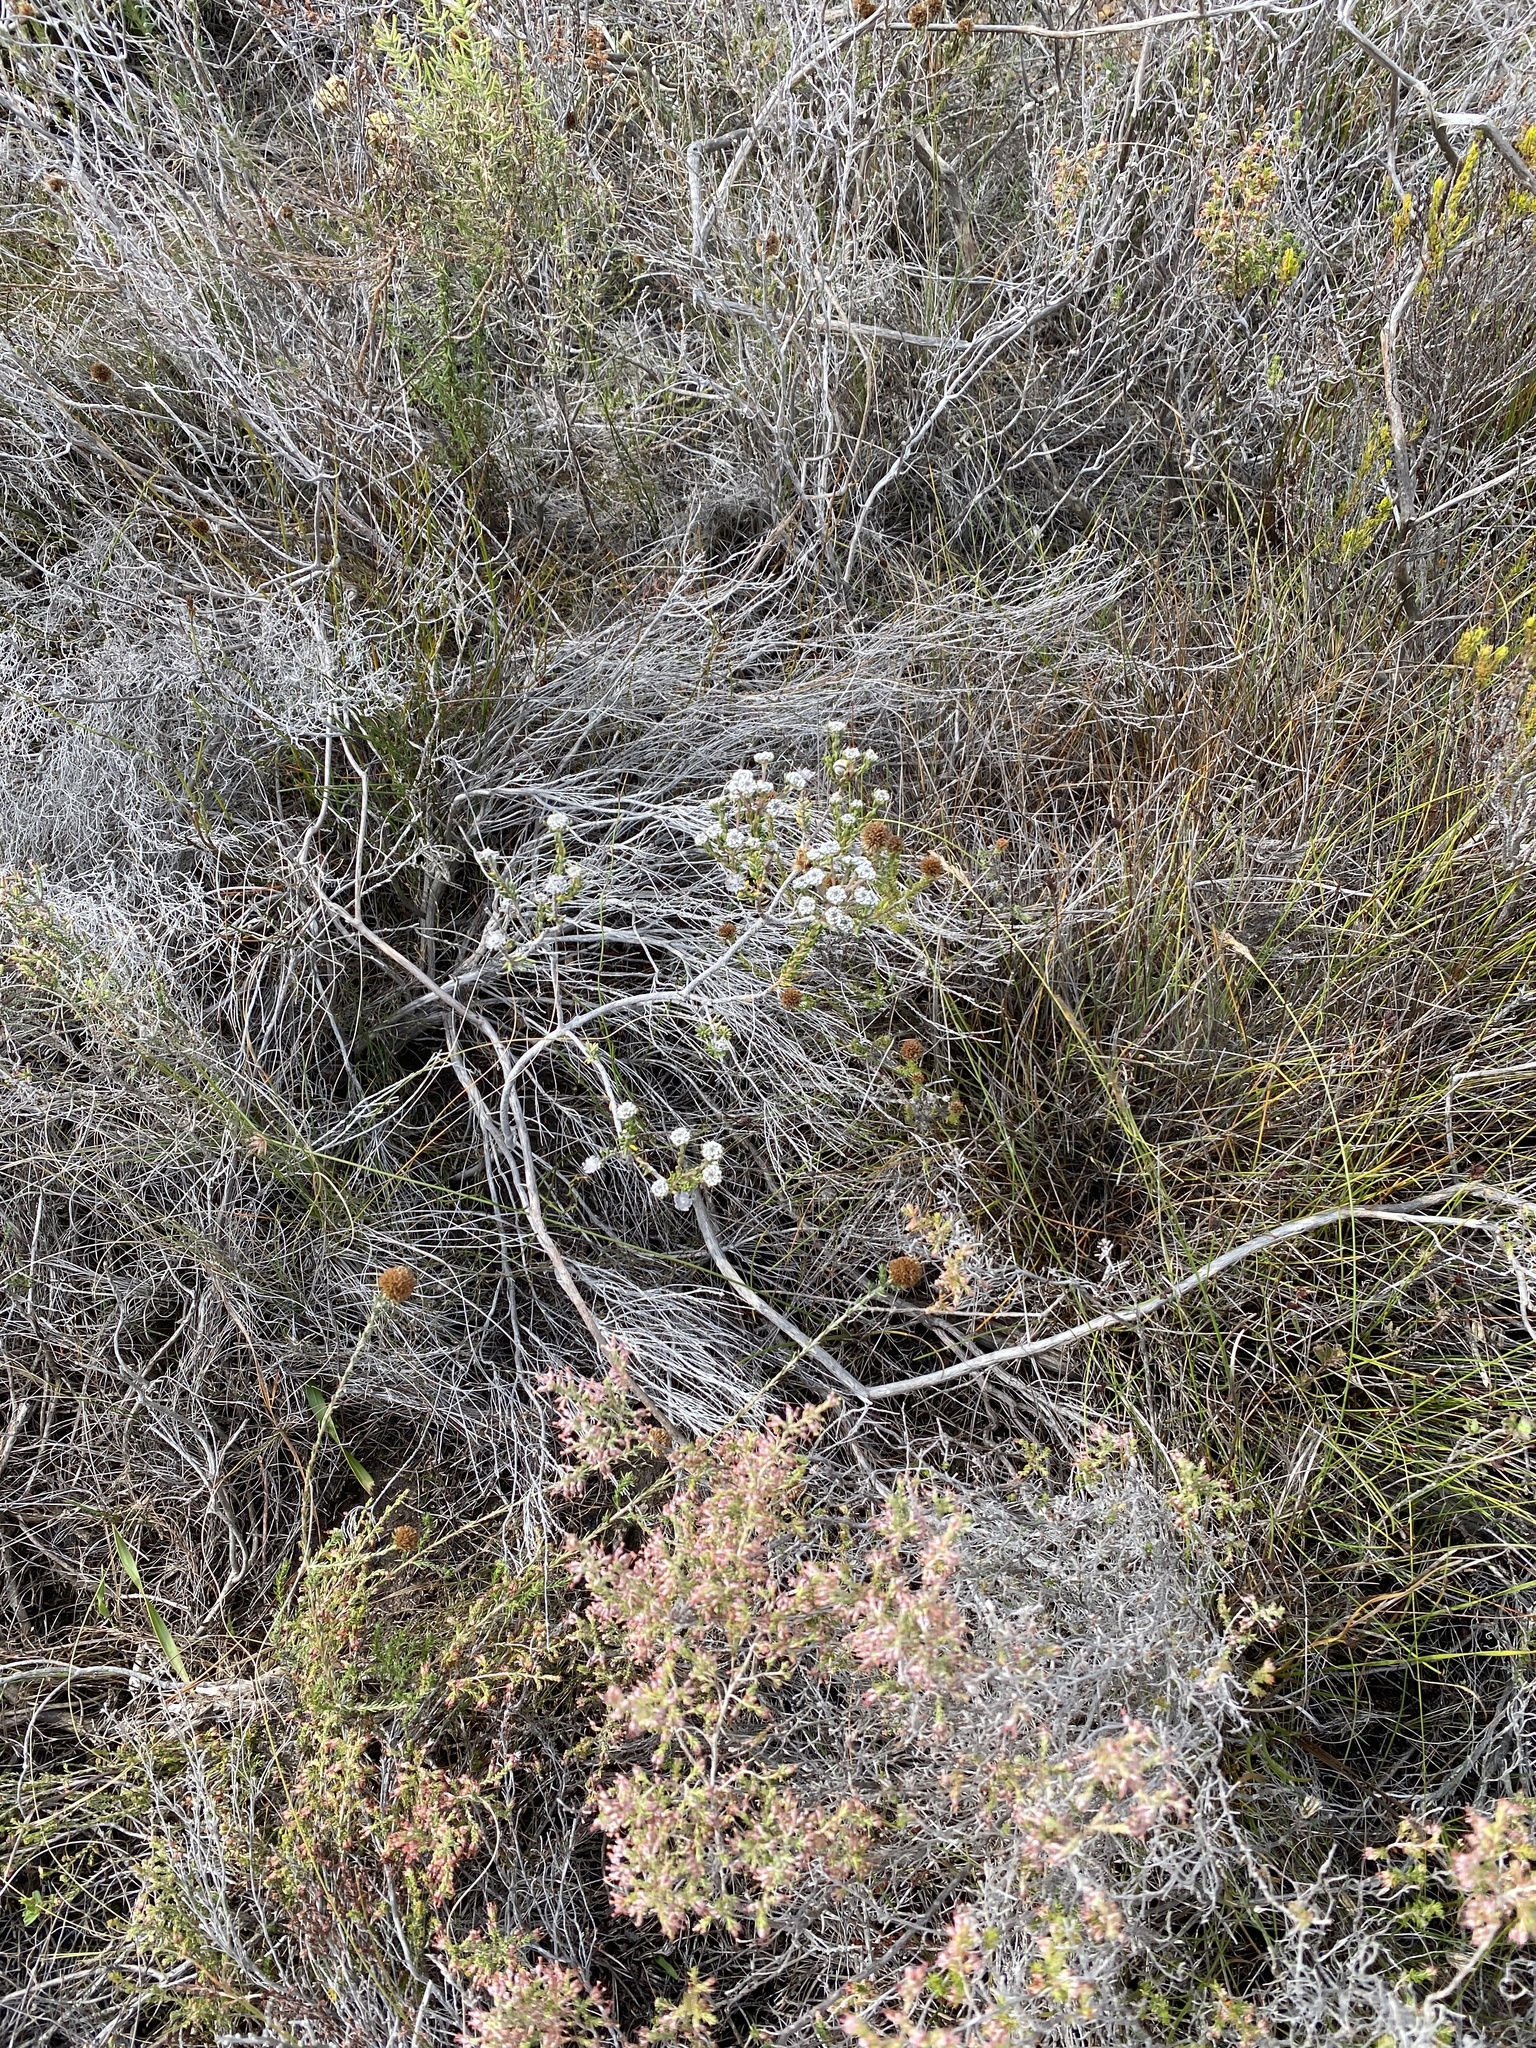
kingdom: Plantae
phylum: Tracheophyta
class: Magnoliopsida
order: Rosales
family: Rhamnaceae
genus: Phylica
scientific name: Phylica selaginoides
